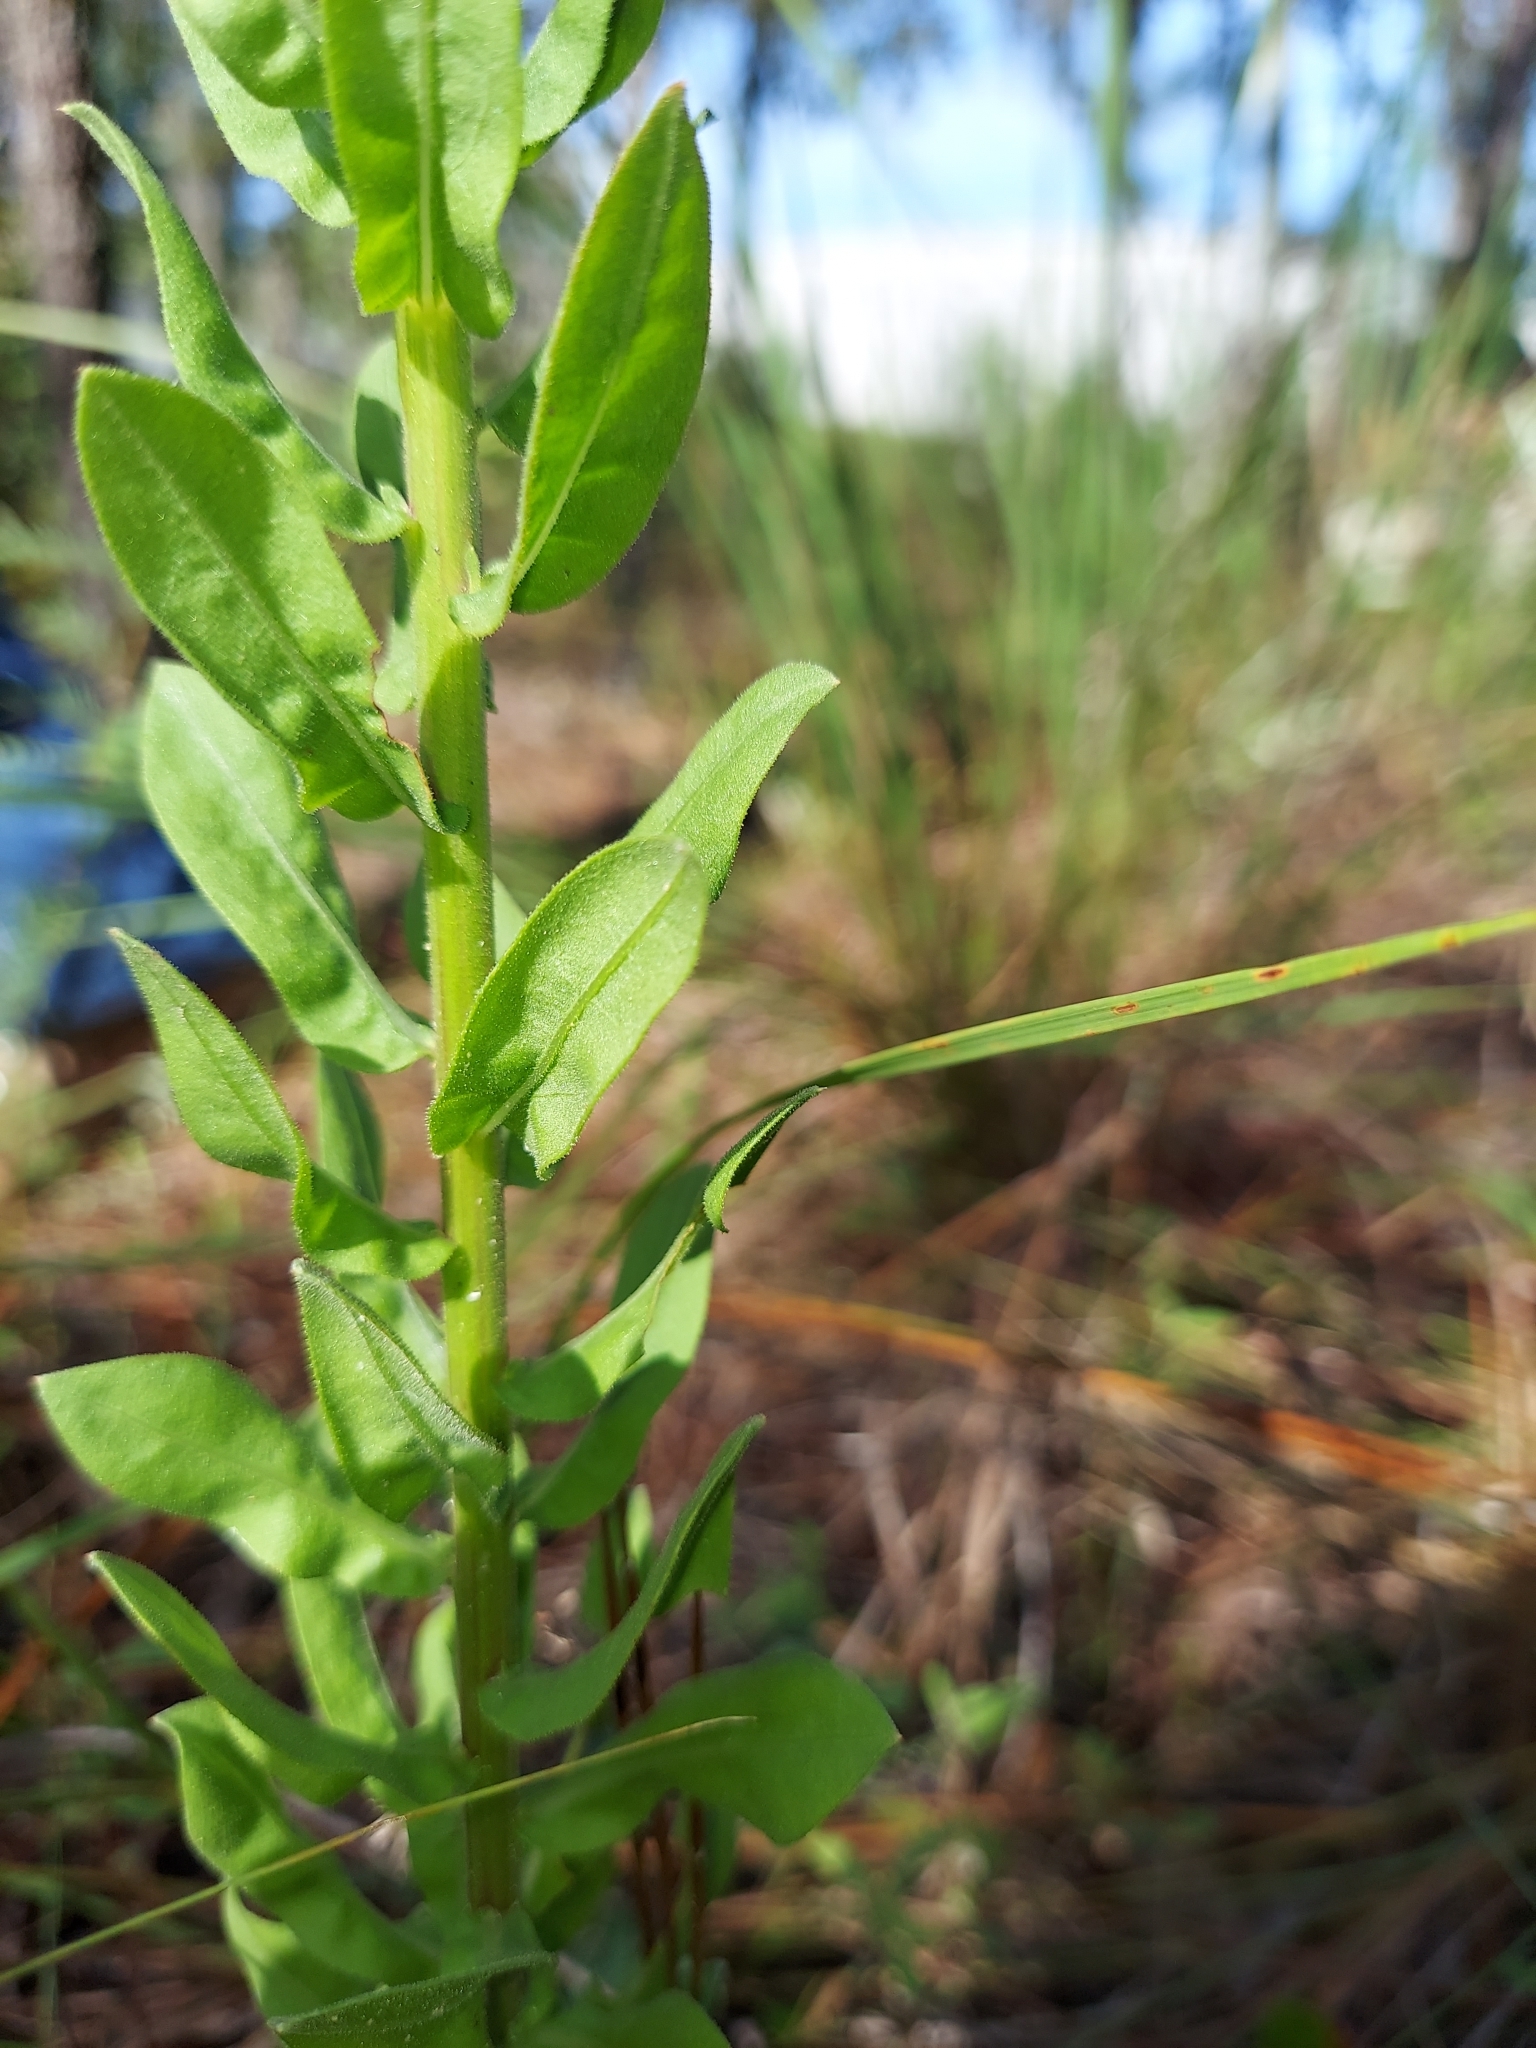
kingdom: Plantae
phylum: Tracheophyta
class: Magnoliopsida
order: Asterales
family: Asteraceae
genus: Chrysopsis
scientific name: Chrysopsis scabrella
